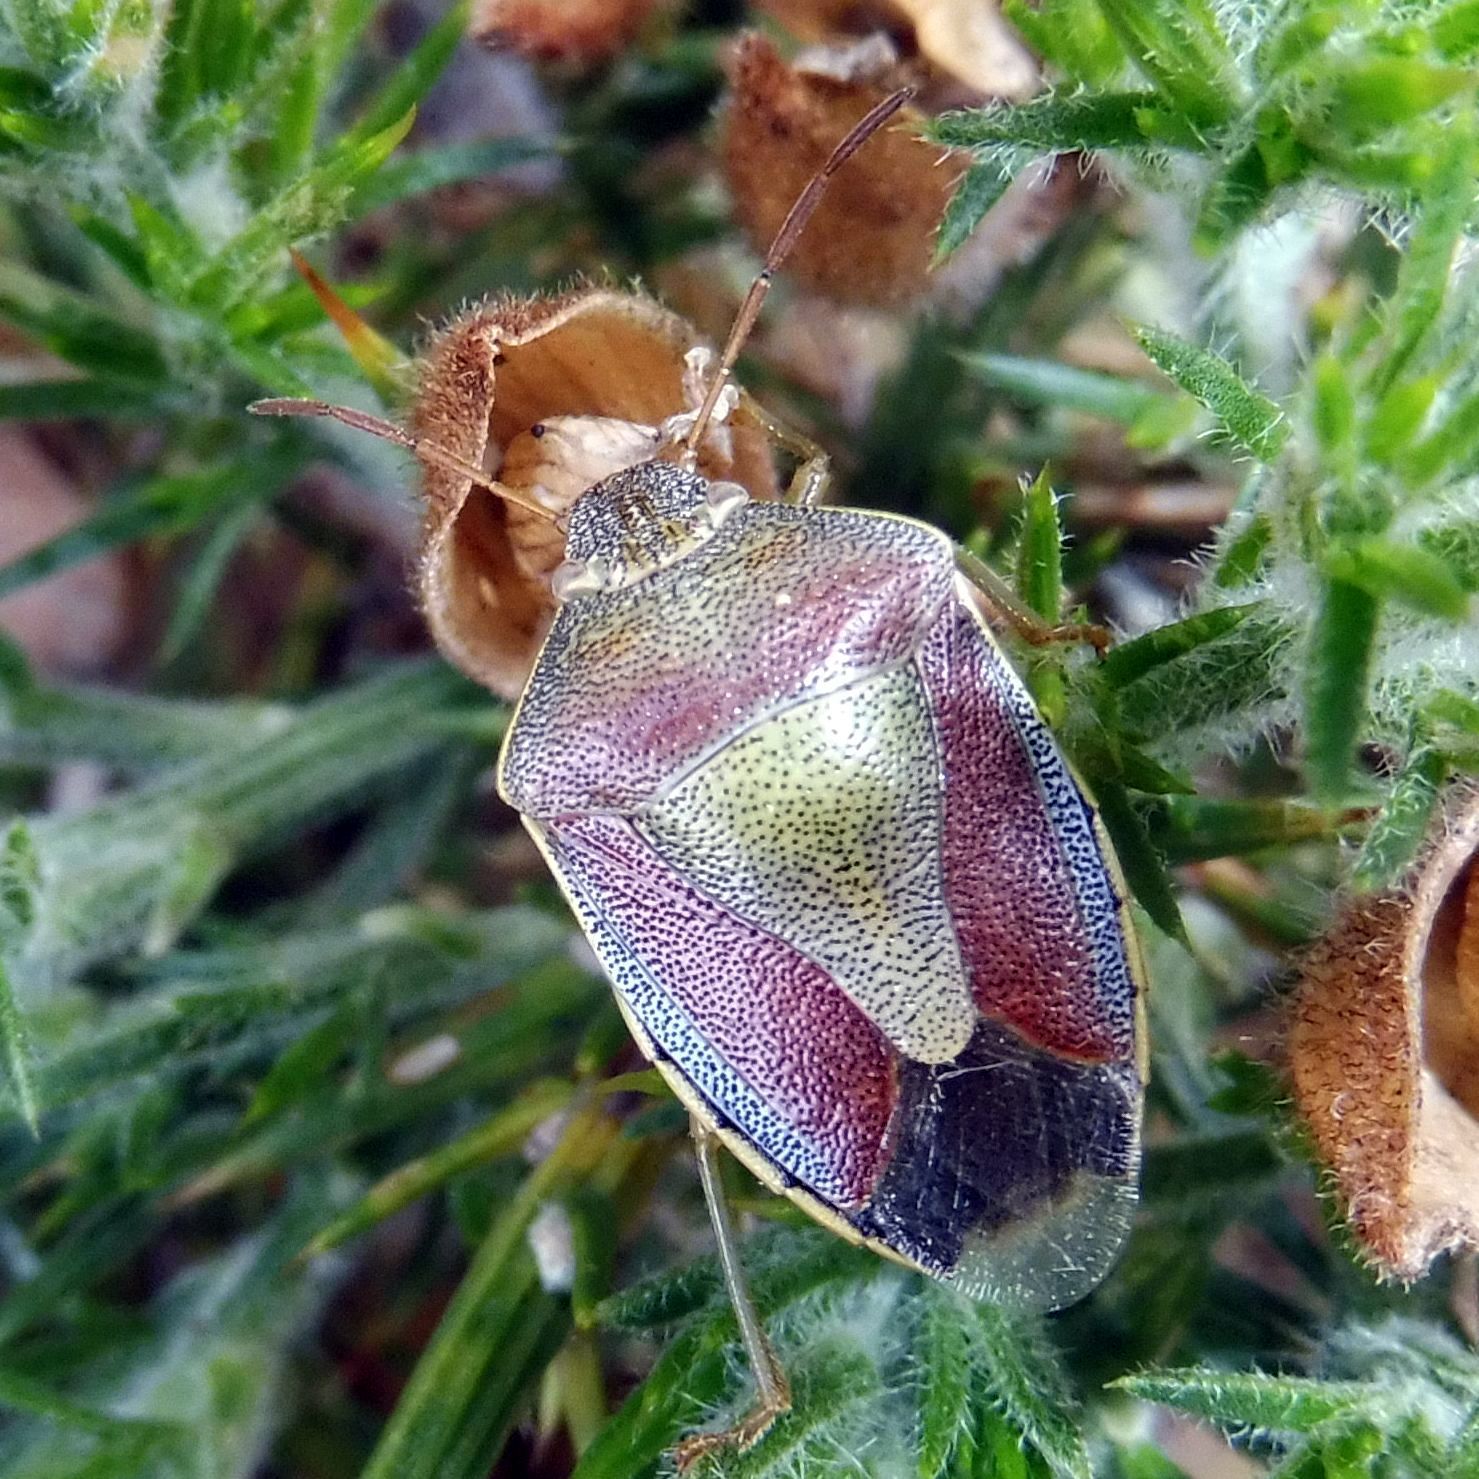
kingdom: Animalia
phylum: Arthropoda
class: Insecta
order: Hemiptera
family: Pentatomidae
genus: Piezodorus
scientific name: Piezodorus lituratus
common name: Stink bug
